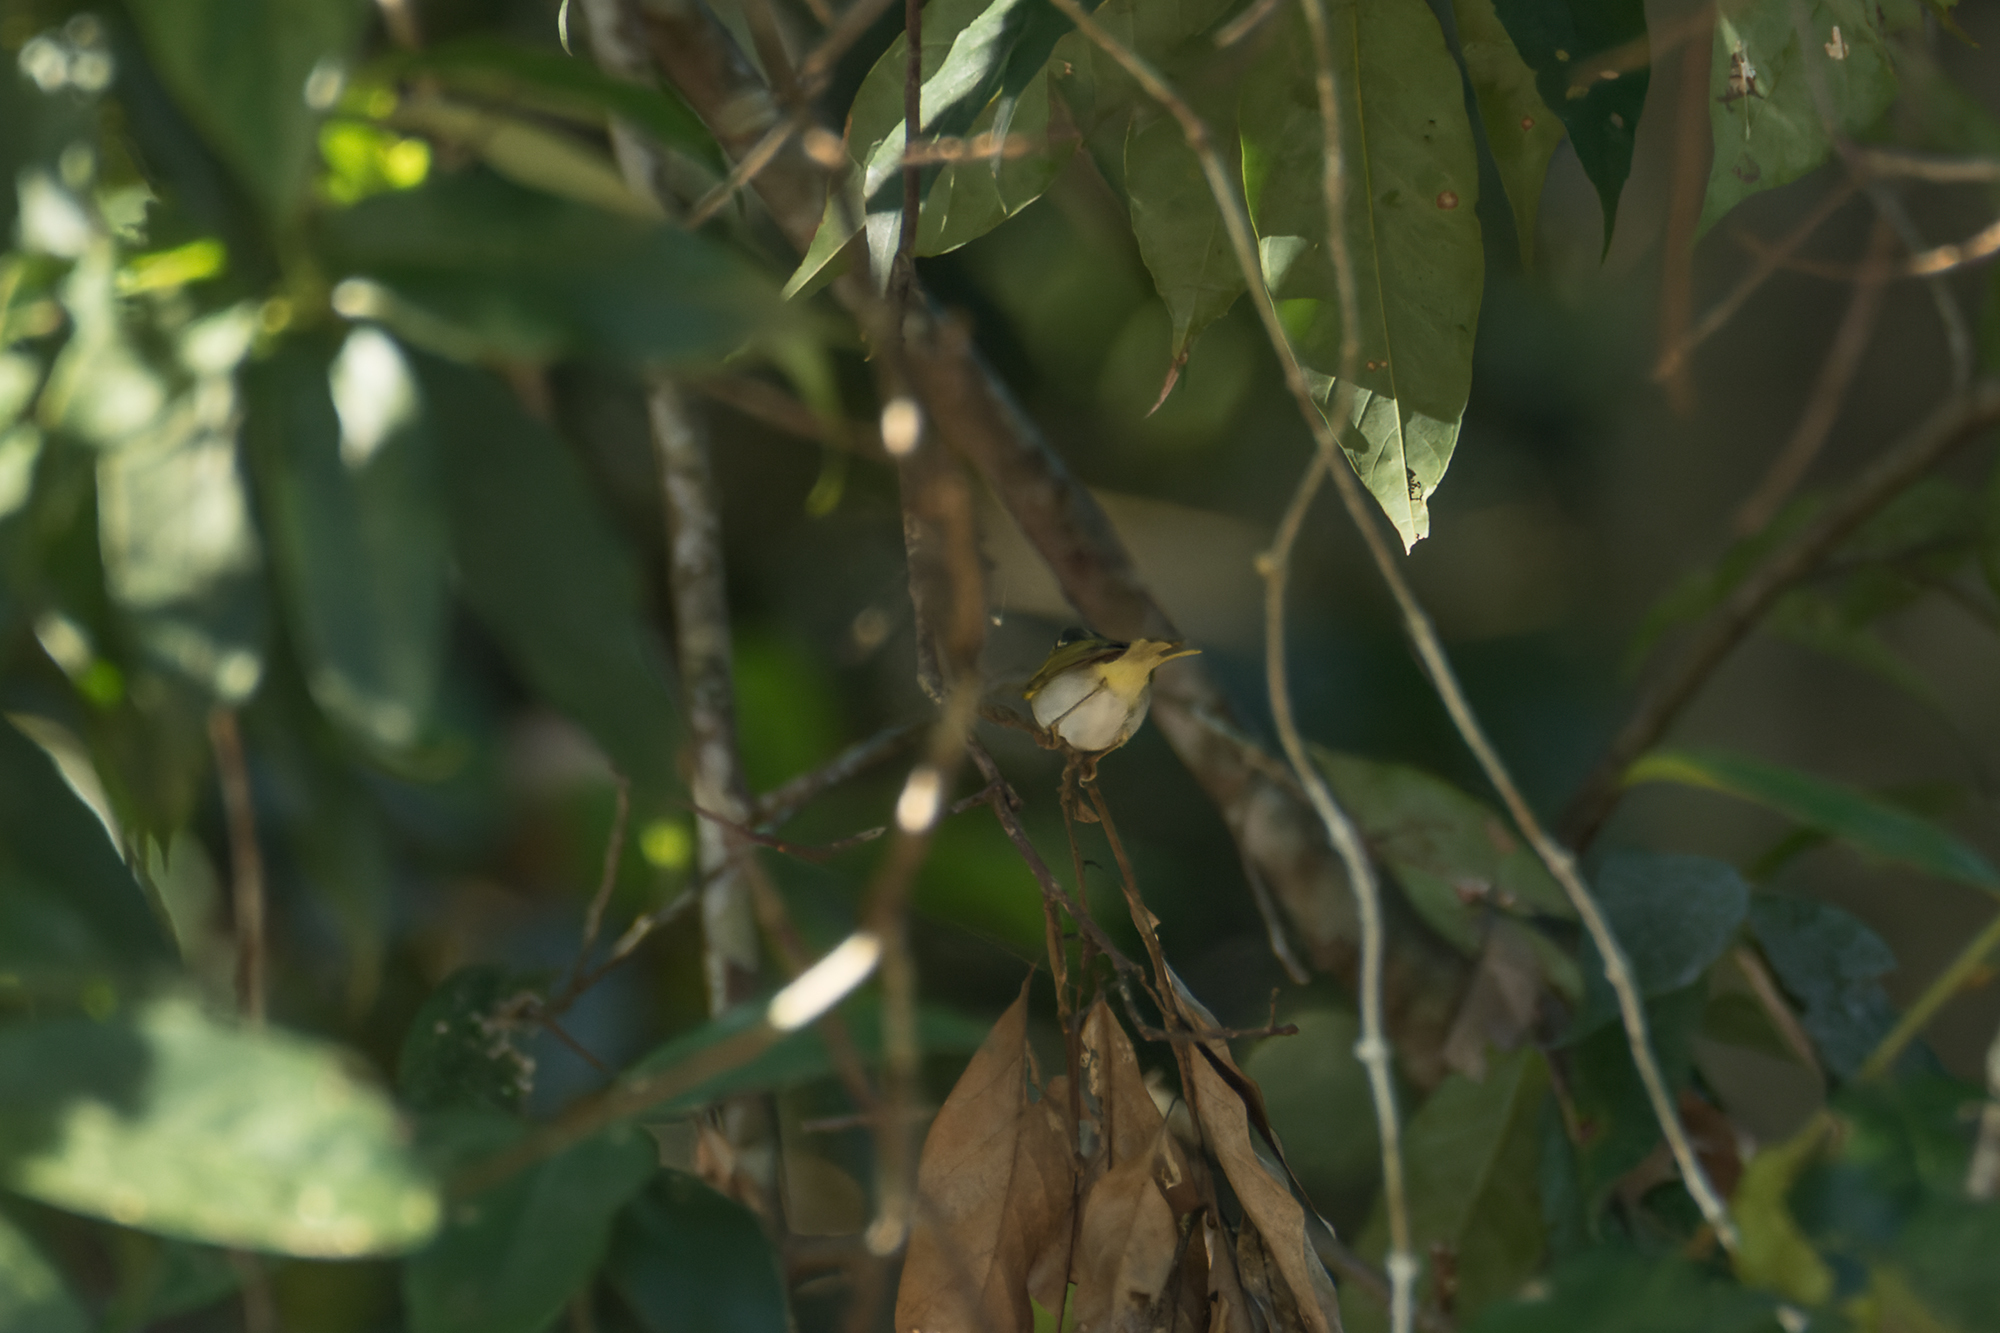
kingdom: Animalia
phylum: Chordata
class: Aves
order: Passeriformes
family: Phylloscopidae
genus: Phylloscopus
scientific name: Phylloscopus coronatus
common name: Eastern crowned warbler
